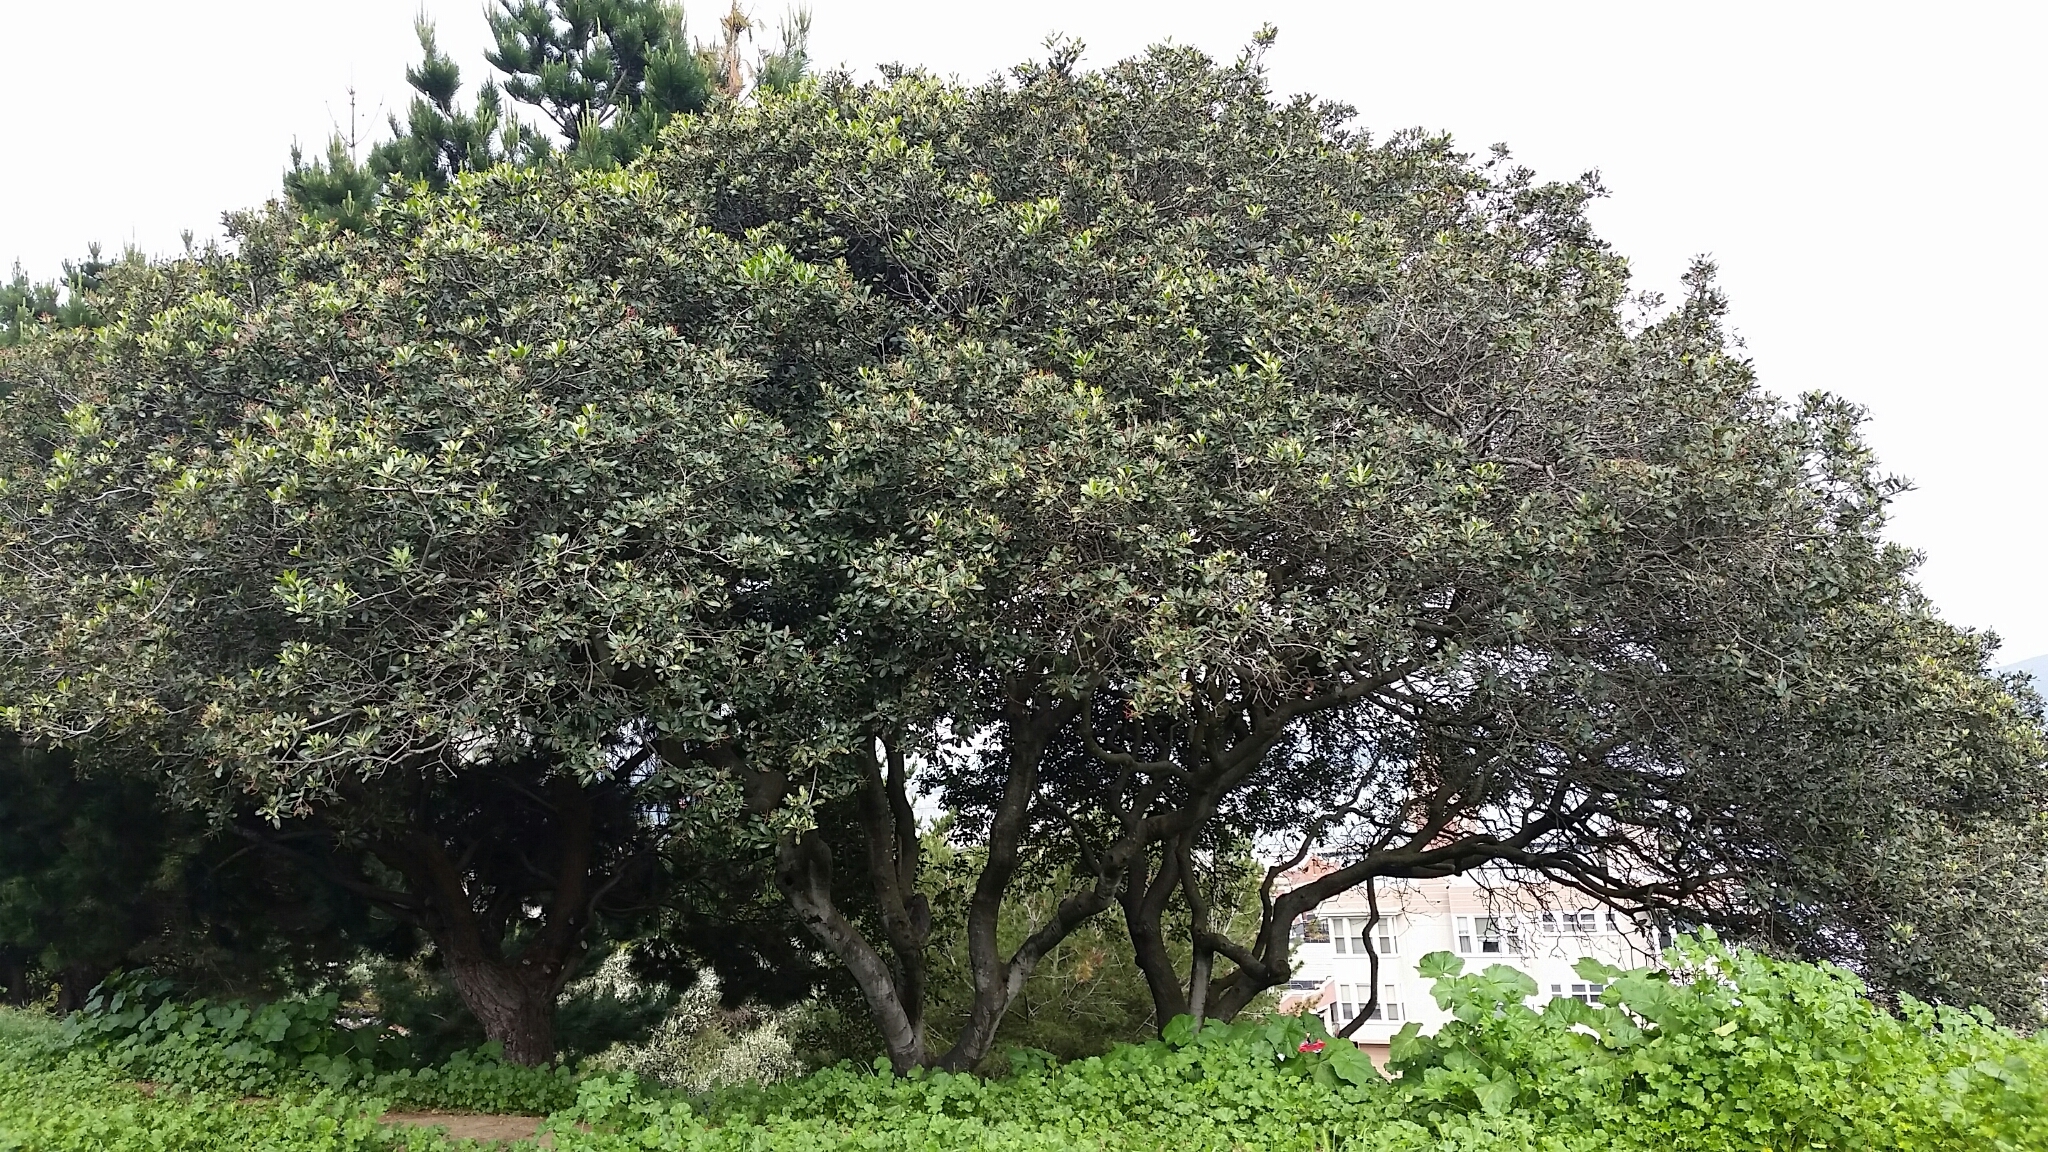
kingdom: Plantae
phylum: Tracheophyta
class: Magnoliopsida
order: Rosales
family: Rosaceae
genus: Heteromeles
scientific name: Heteromeles arbutifolia
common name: California-holly
